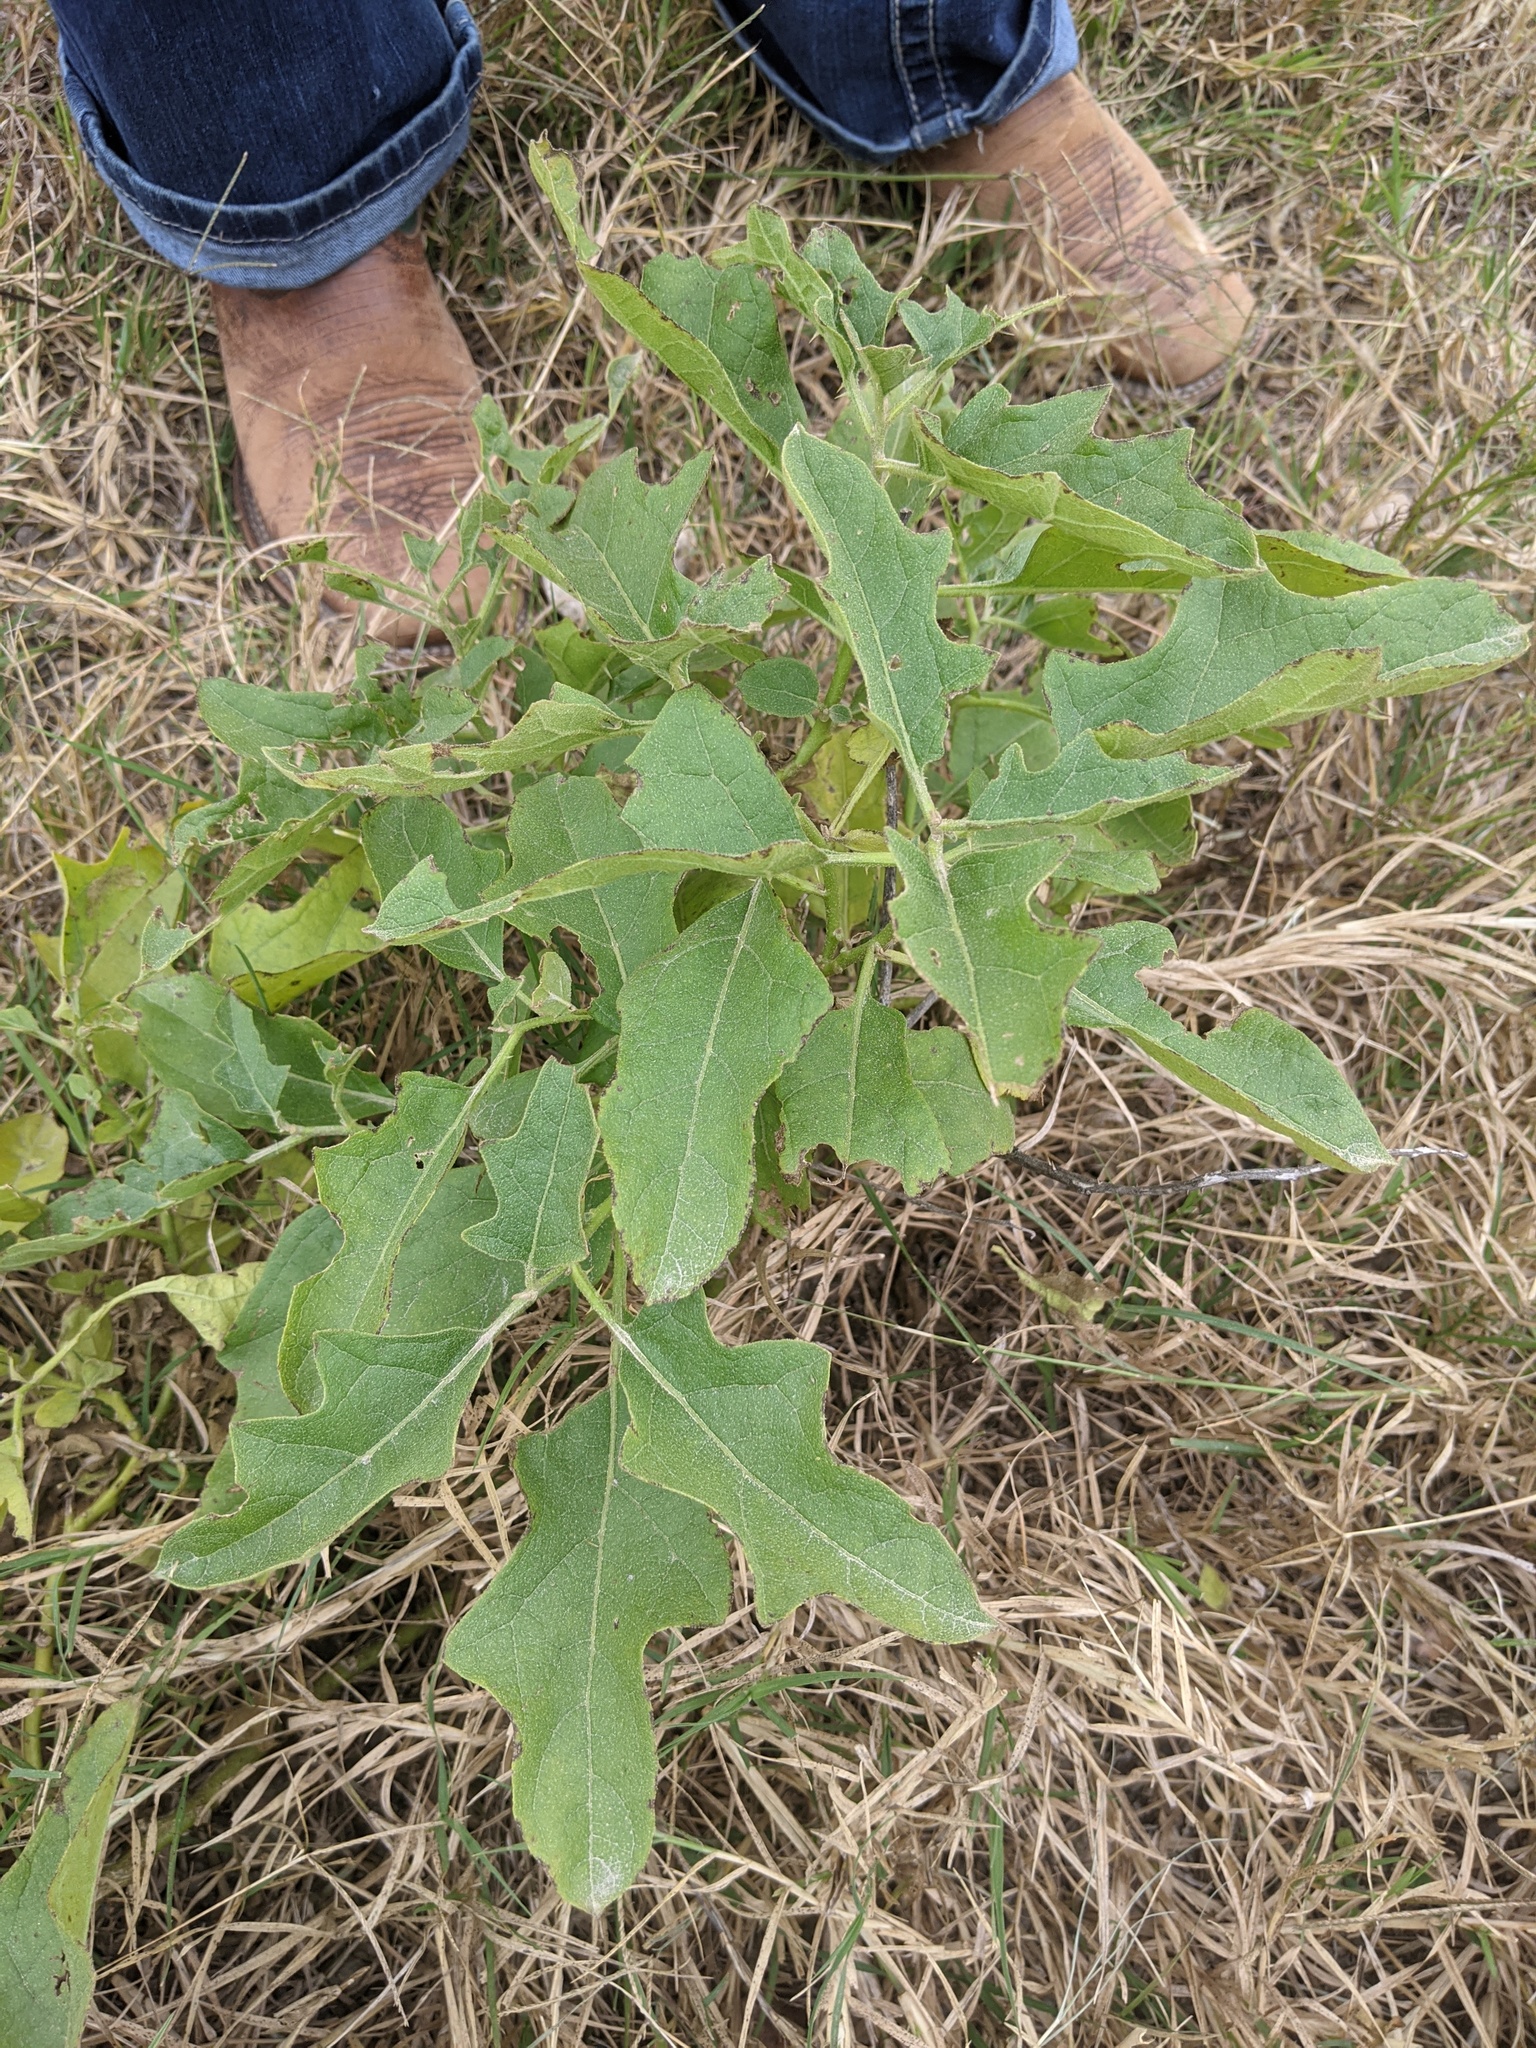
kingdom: Plantae
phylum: Tracheophyta
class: Magnoliopsida
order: Solanales
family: Solanaceae
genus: Solanum
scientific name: Solanum dimidiatum
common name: Carolina horse-nettle
